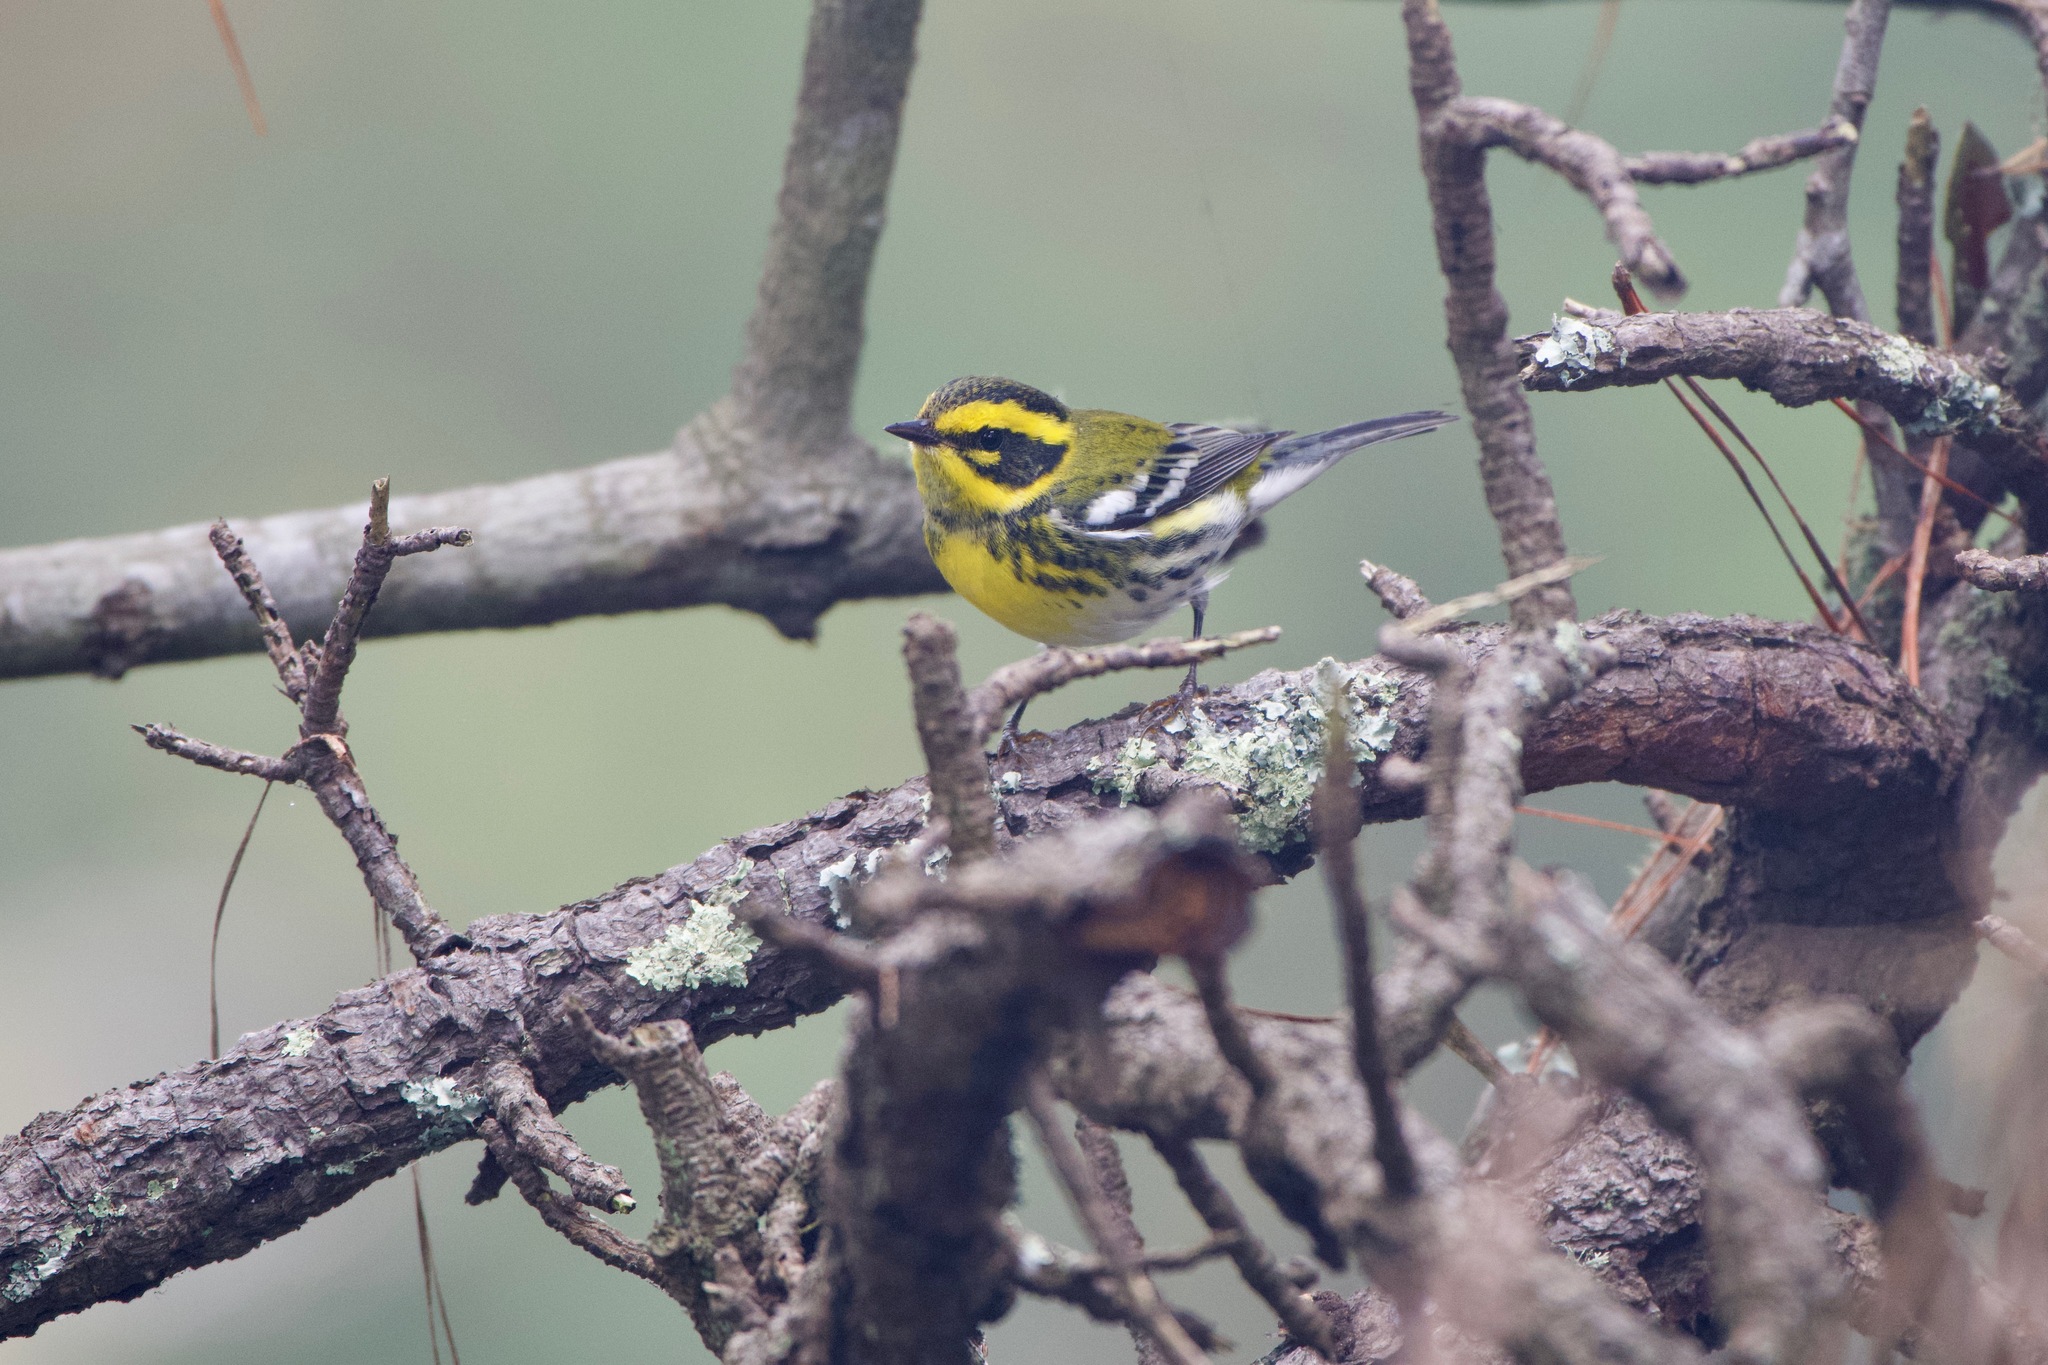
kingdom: Animalia
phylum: Chordata
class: Aves
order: Passeriformes
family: Parulidae
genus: Setophaga
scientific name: Setophaga townsendi
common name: Townsend's warbler
